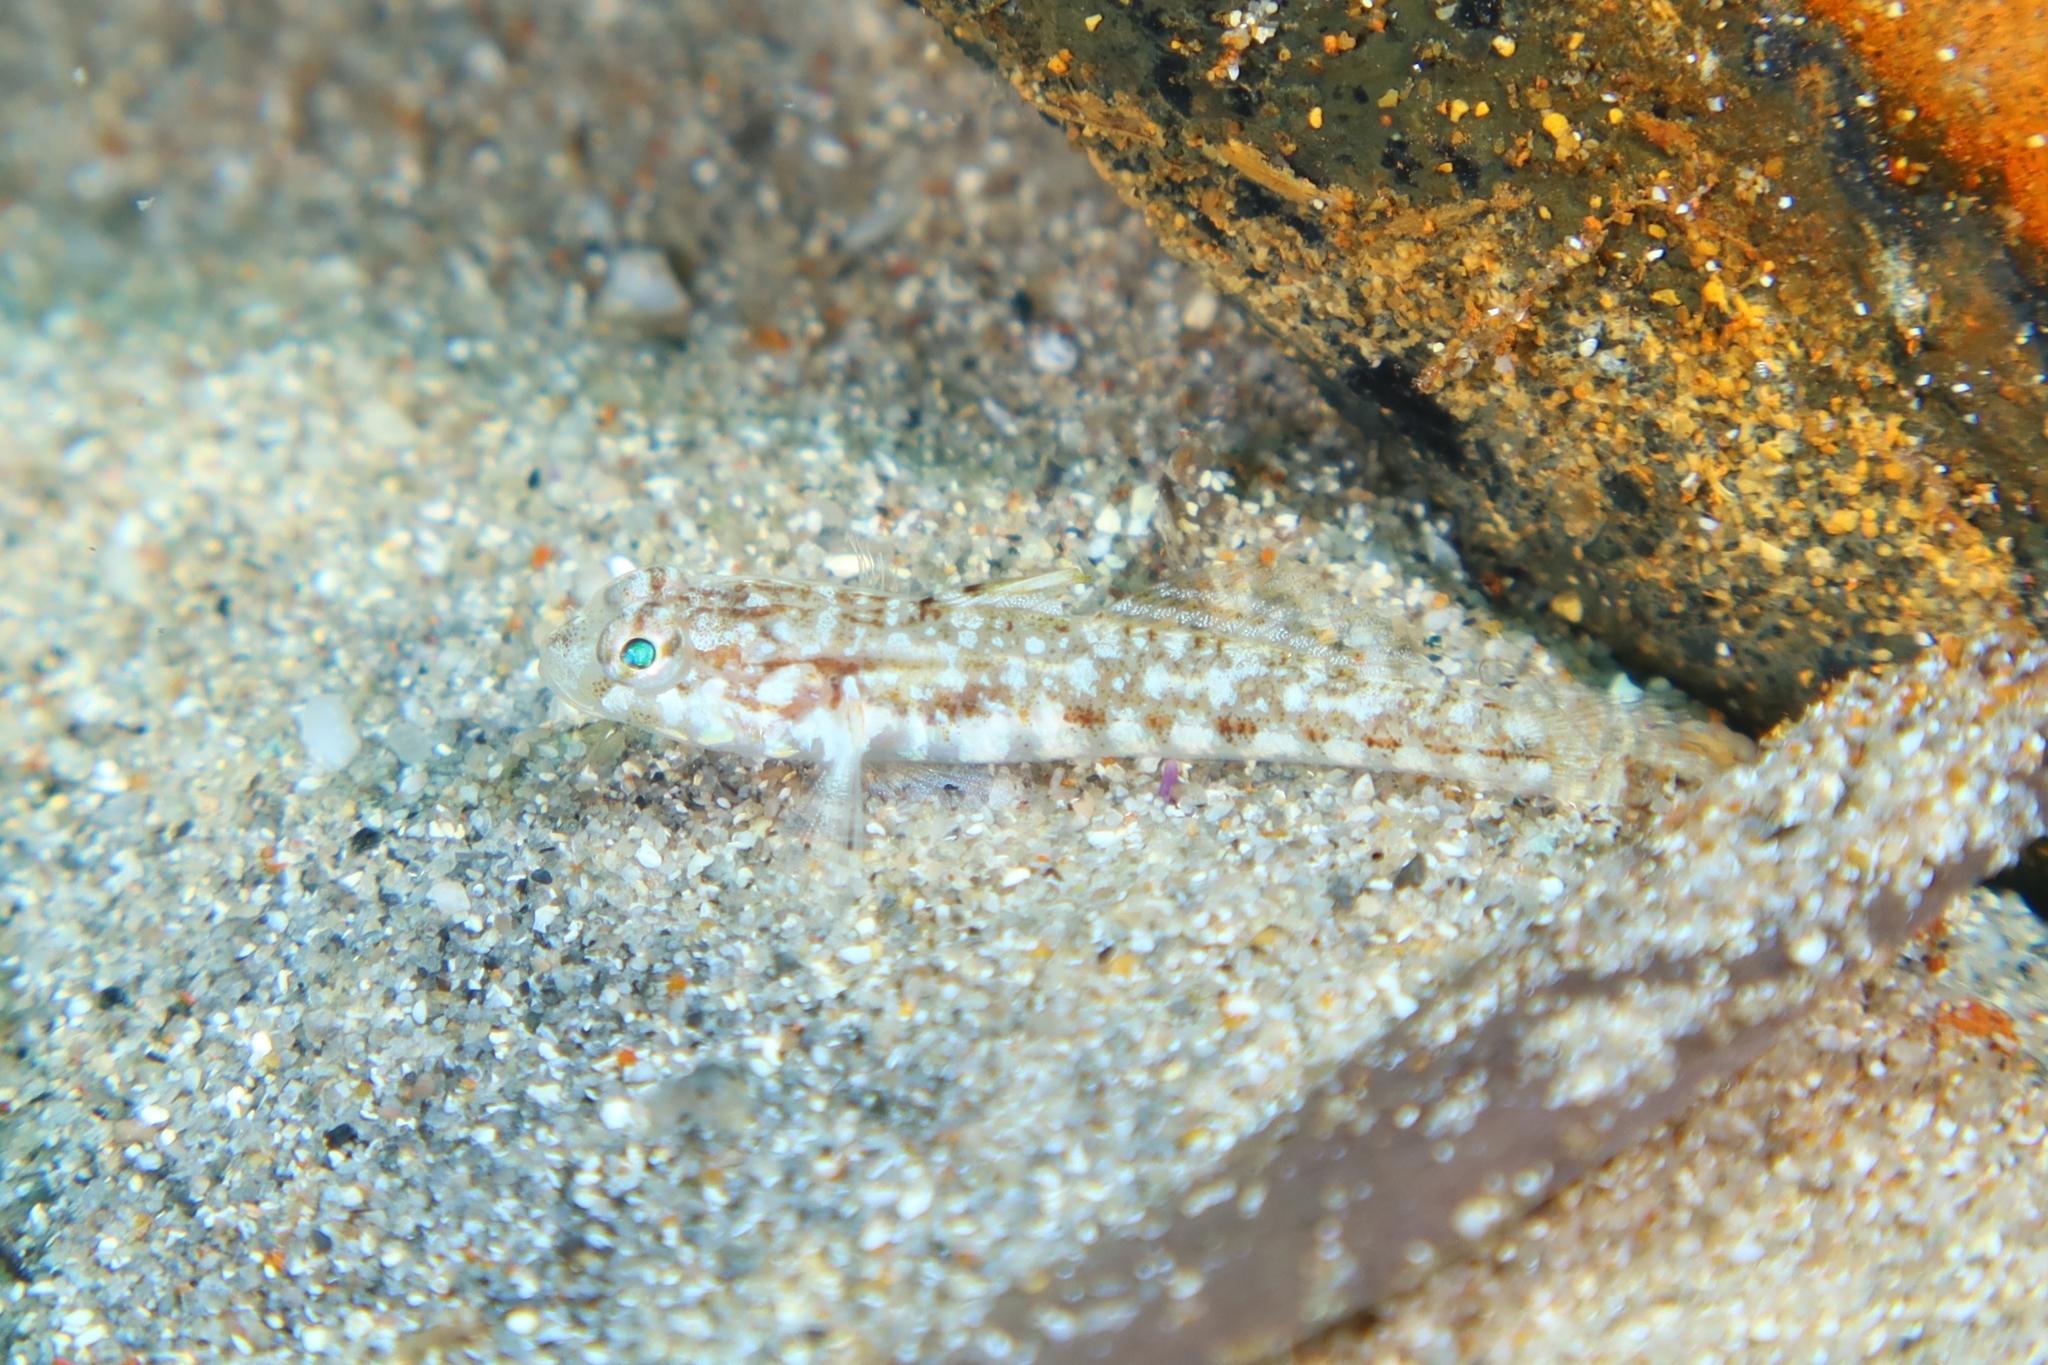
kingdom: Animalia
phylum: Chordata
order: Perciformes
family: Gobiidae
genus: Gobius
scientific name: Gobius roulei
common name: Roule's goby
